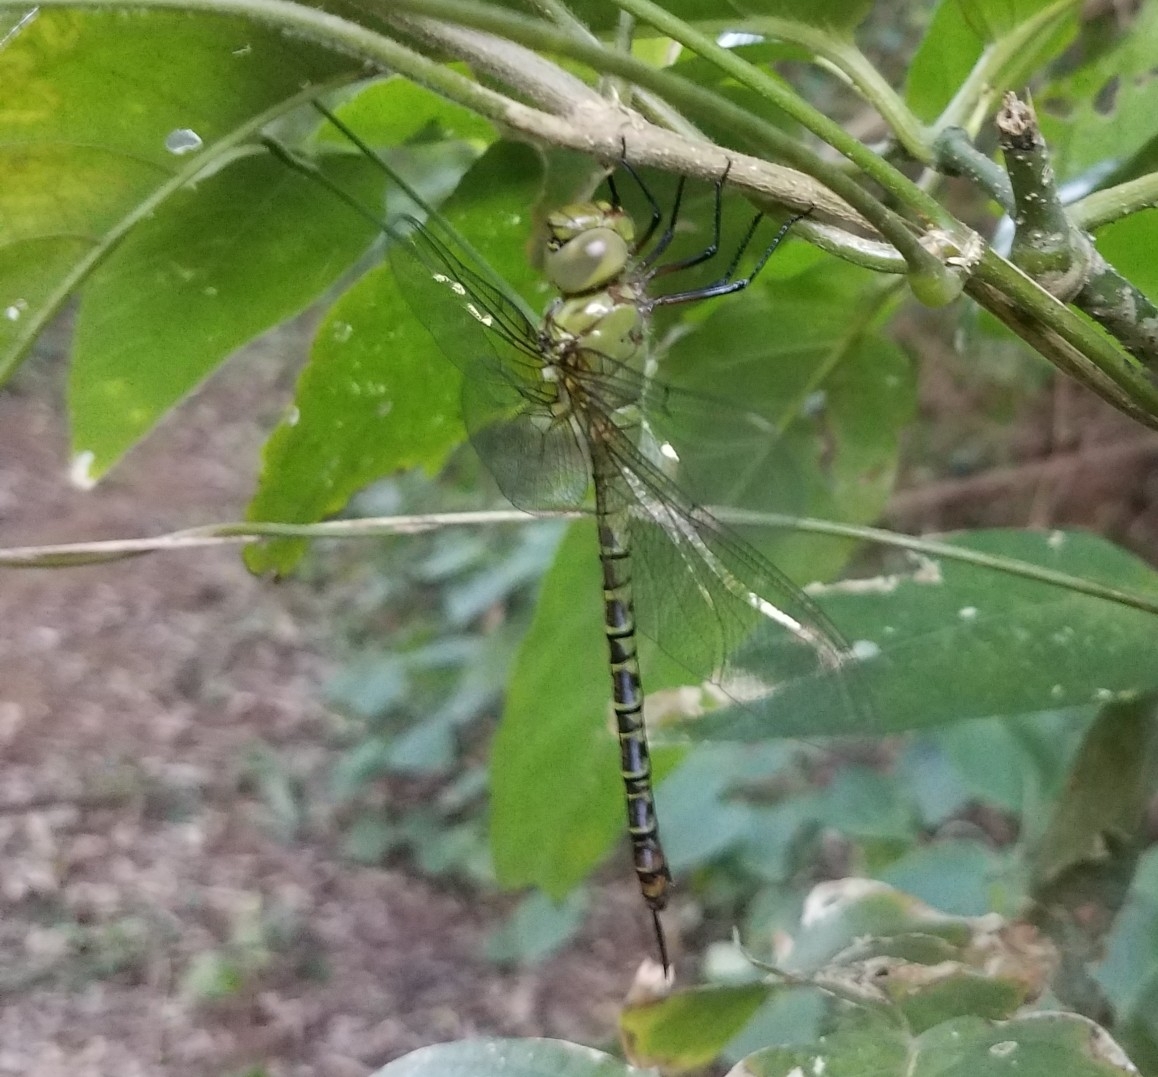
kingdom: Animalia
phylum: Arthropoda
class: Insecta
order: Odonata
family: Aeshnidae
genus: Coryphaeschna
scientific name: Coryphaeschna viriditas
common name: Mangrove darner
